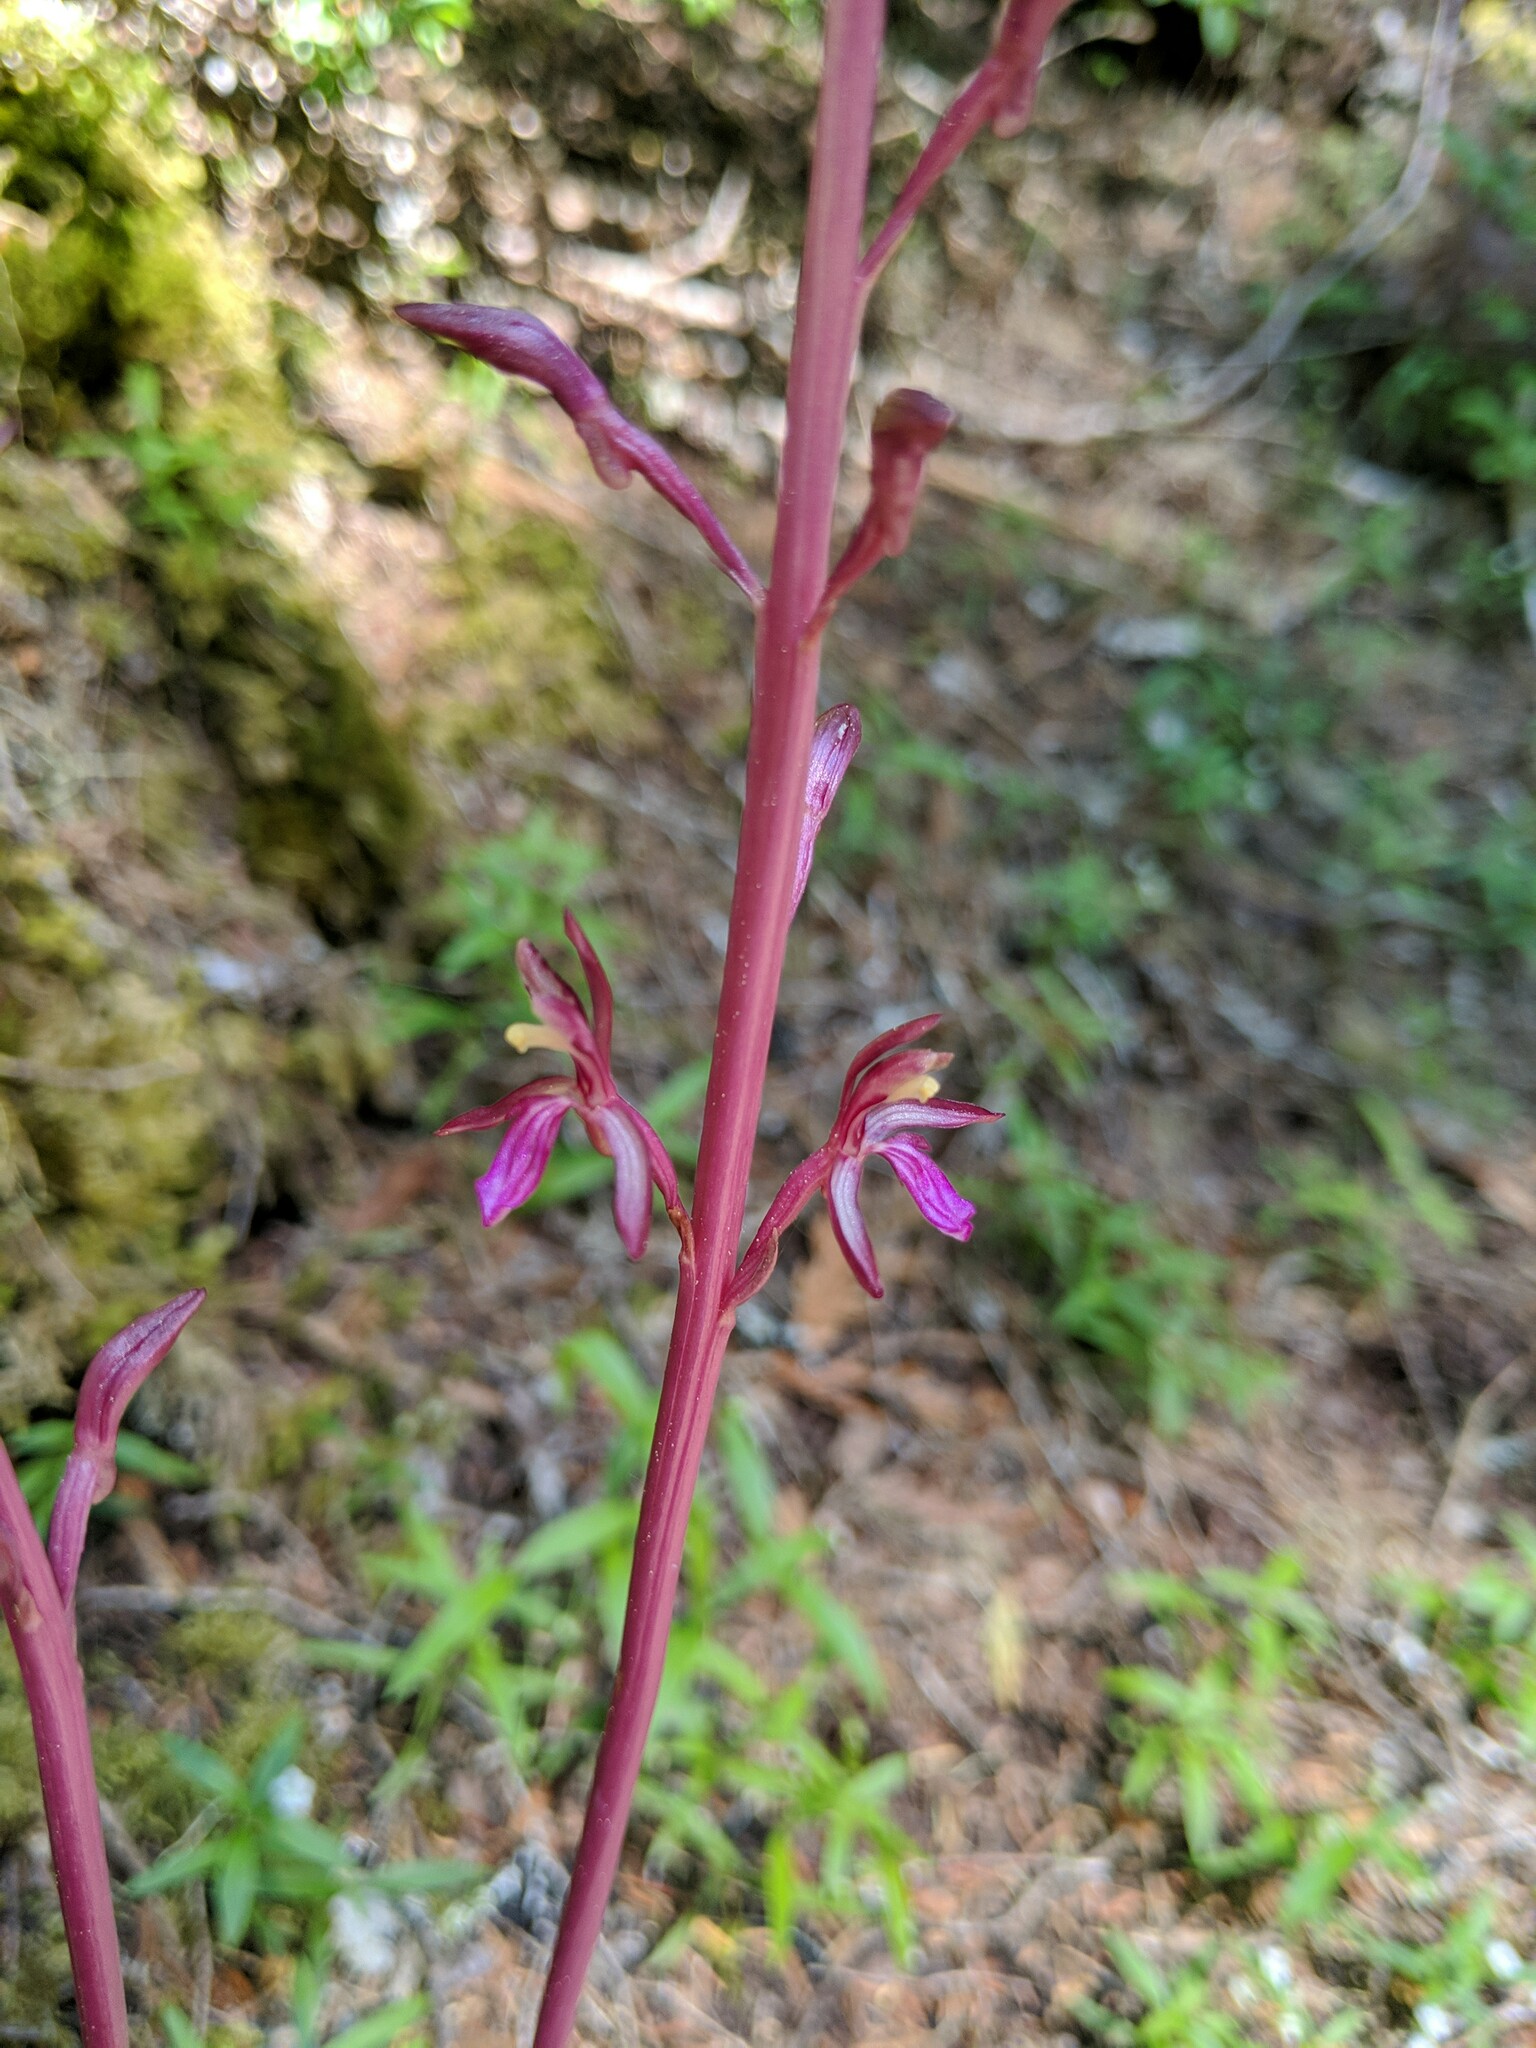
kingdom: Plantae
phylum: Tracheophyta
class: Liliopsida
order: Asparagales
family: Orchidaceae
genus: Corallorhiza
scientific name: Corallorhiza mertensiana
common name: Pacific coralroot
